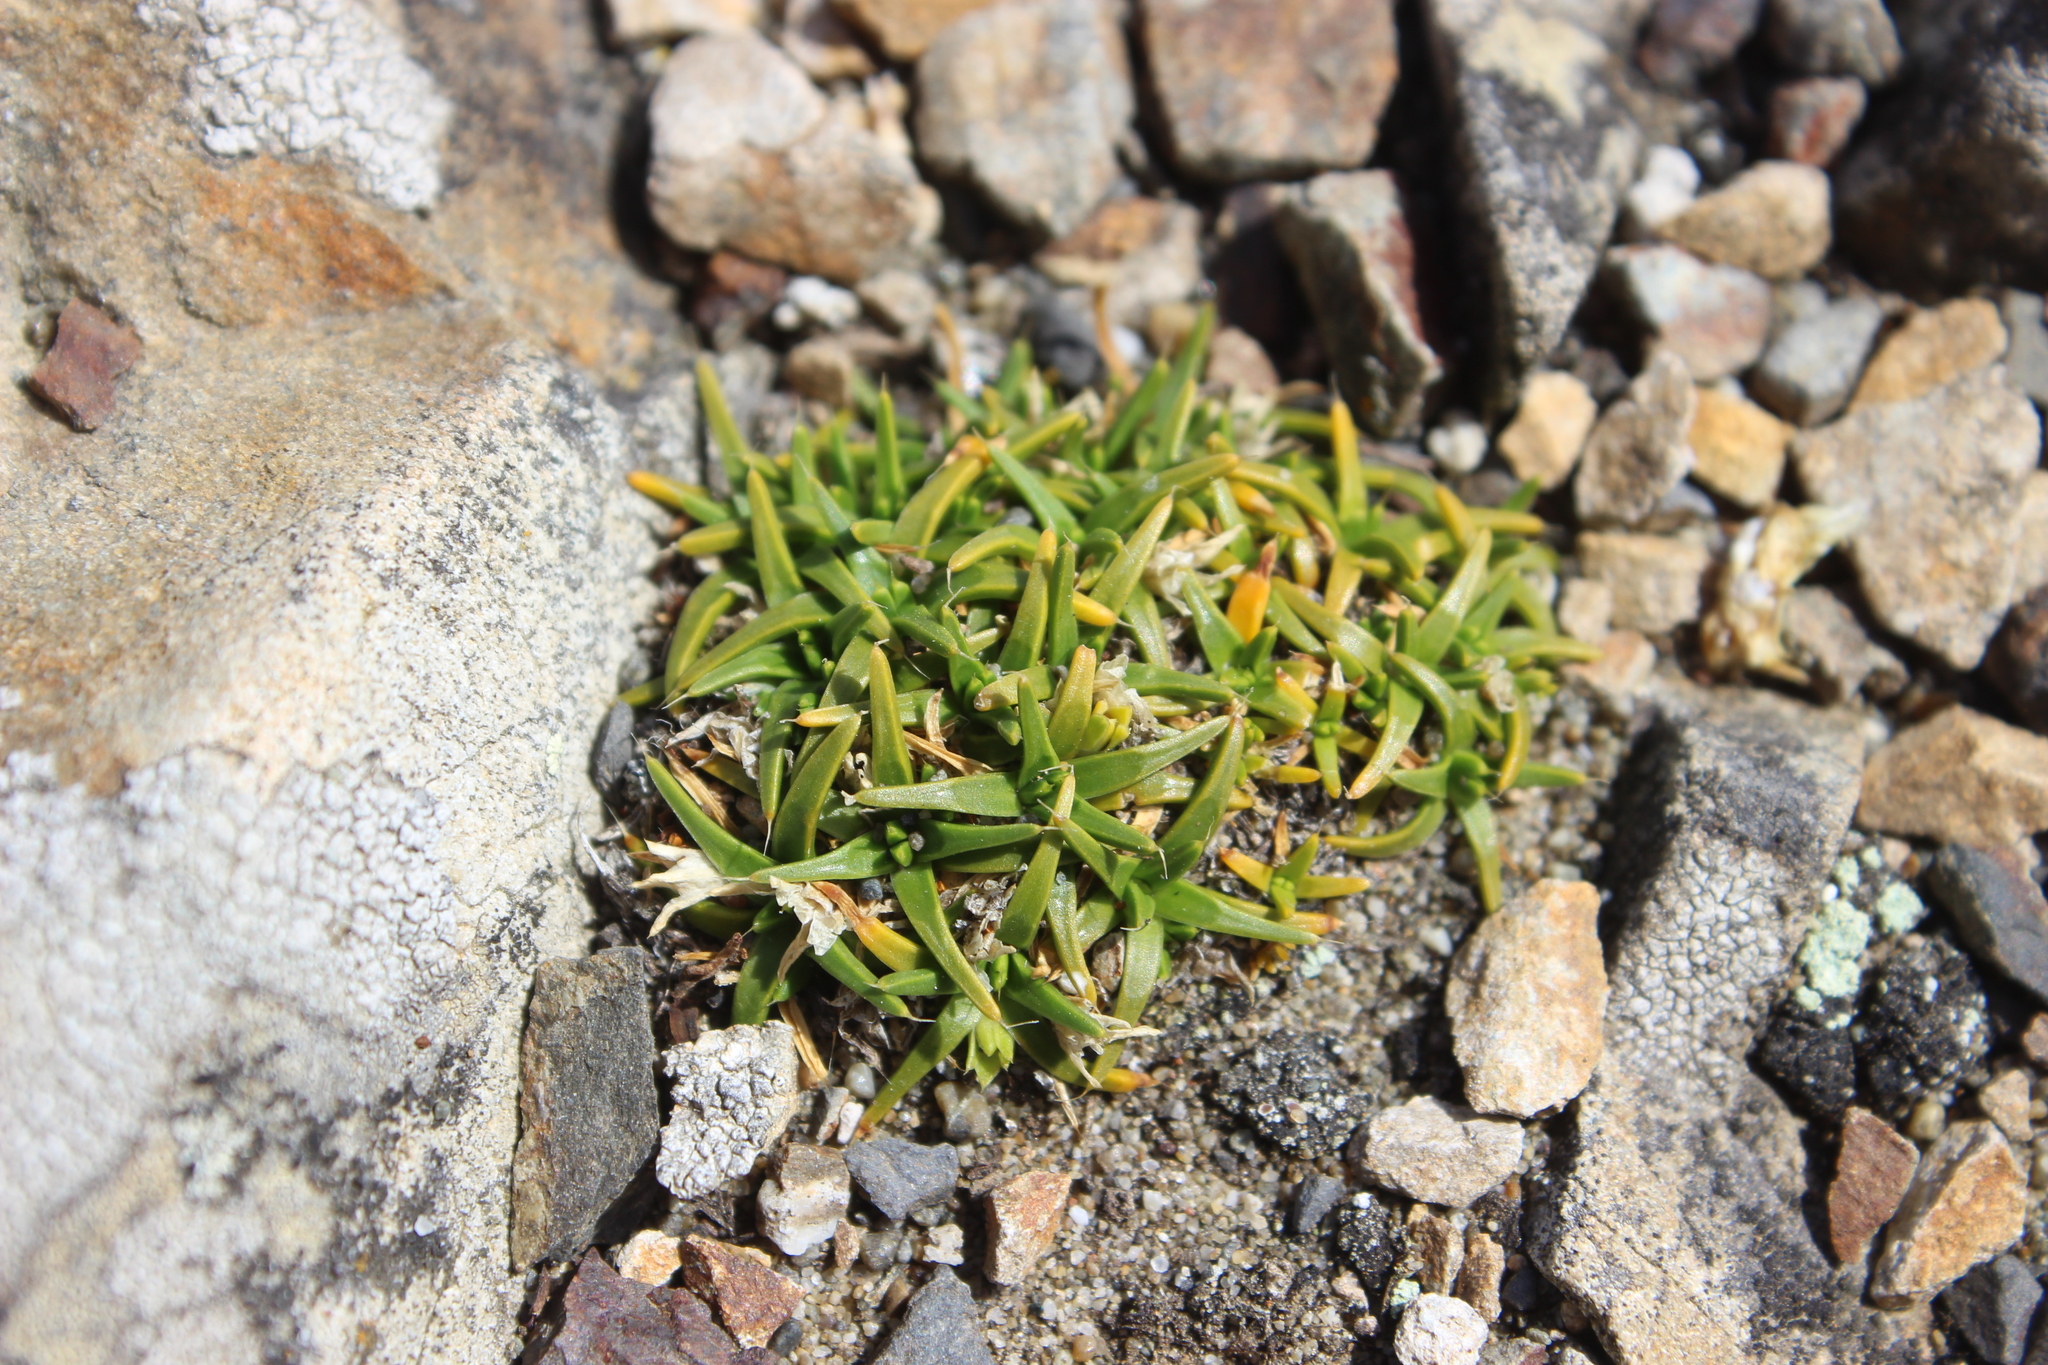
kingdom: Plantae
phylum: Tracheophyta
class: Magnoliopsida
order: Caryophyllales
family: Caryophyllaceae
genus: Colobanthus
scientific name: Colobanthus muelleri
